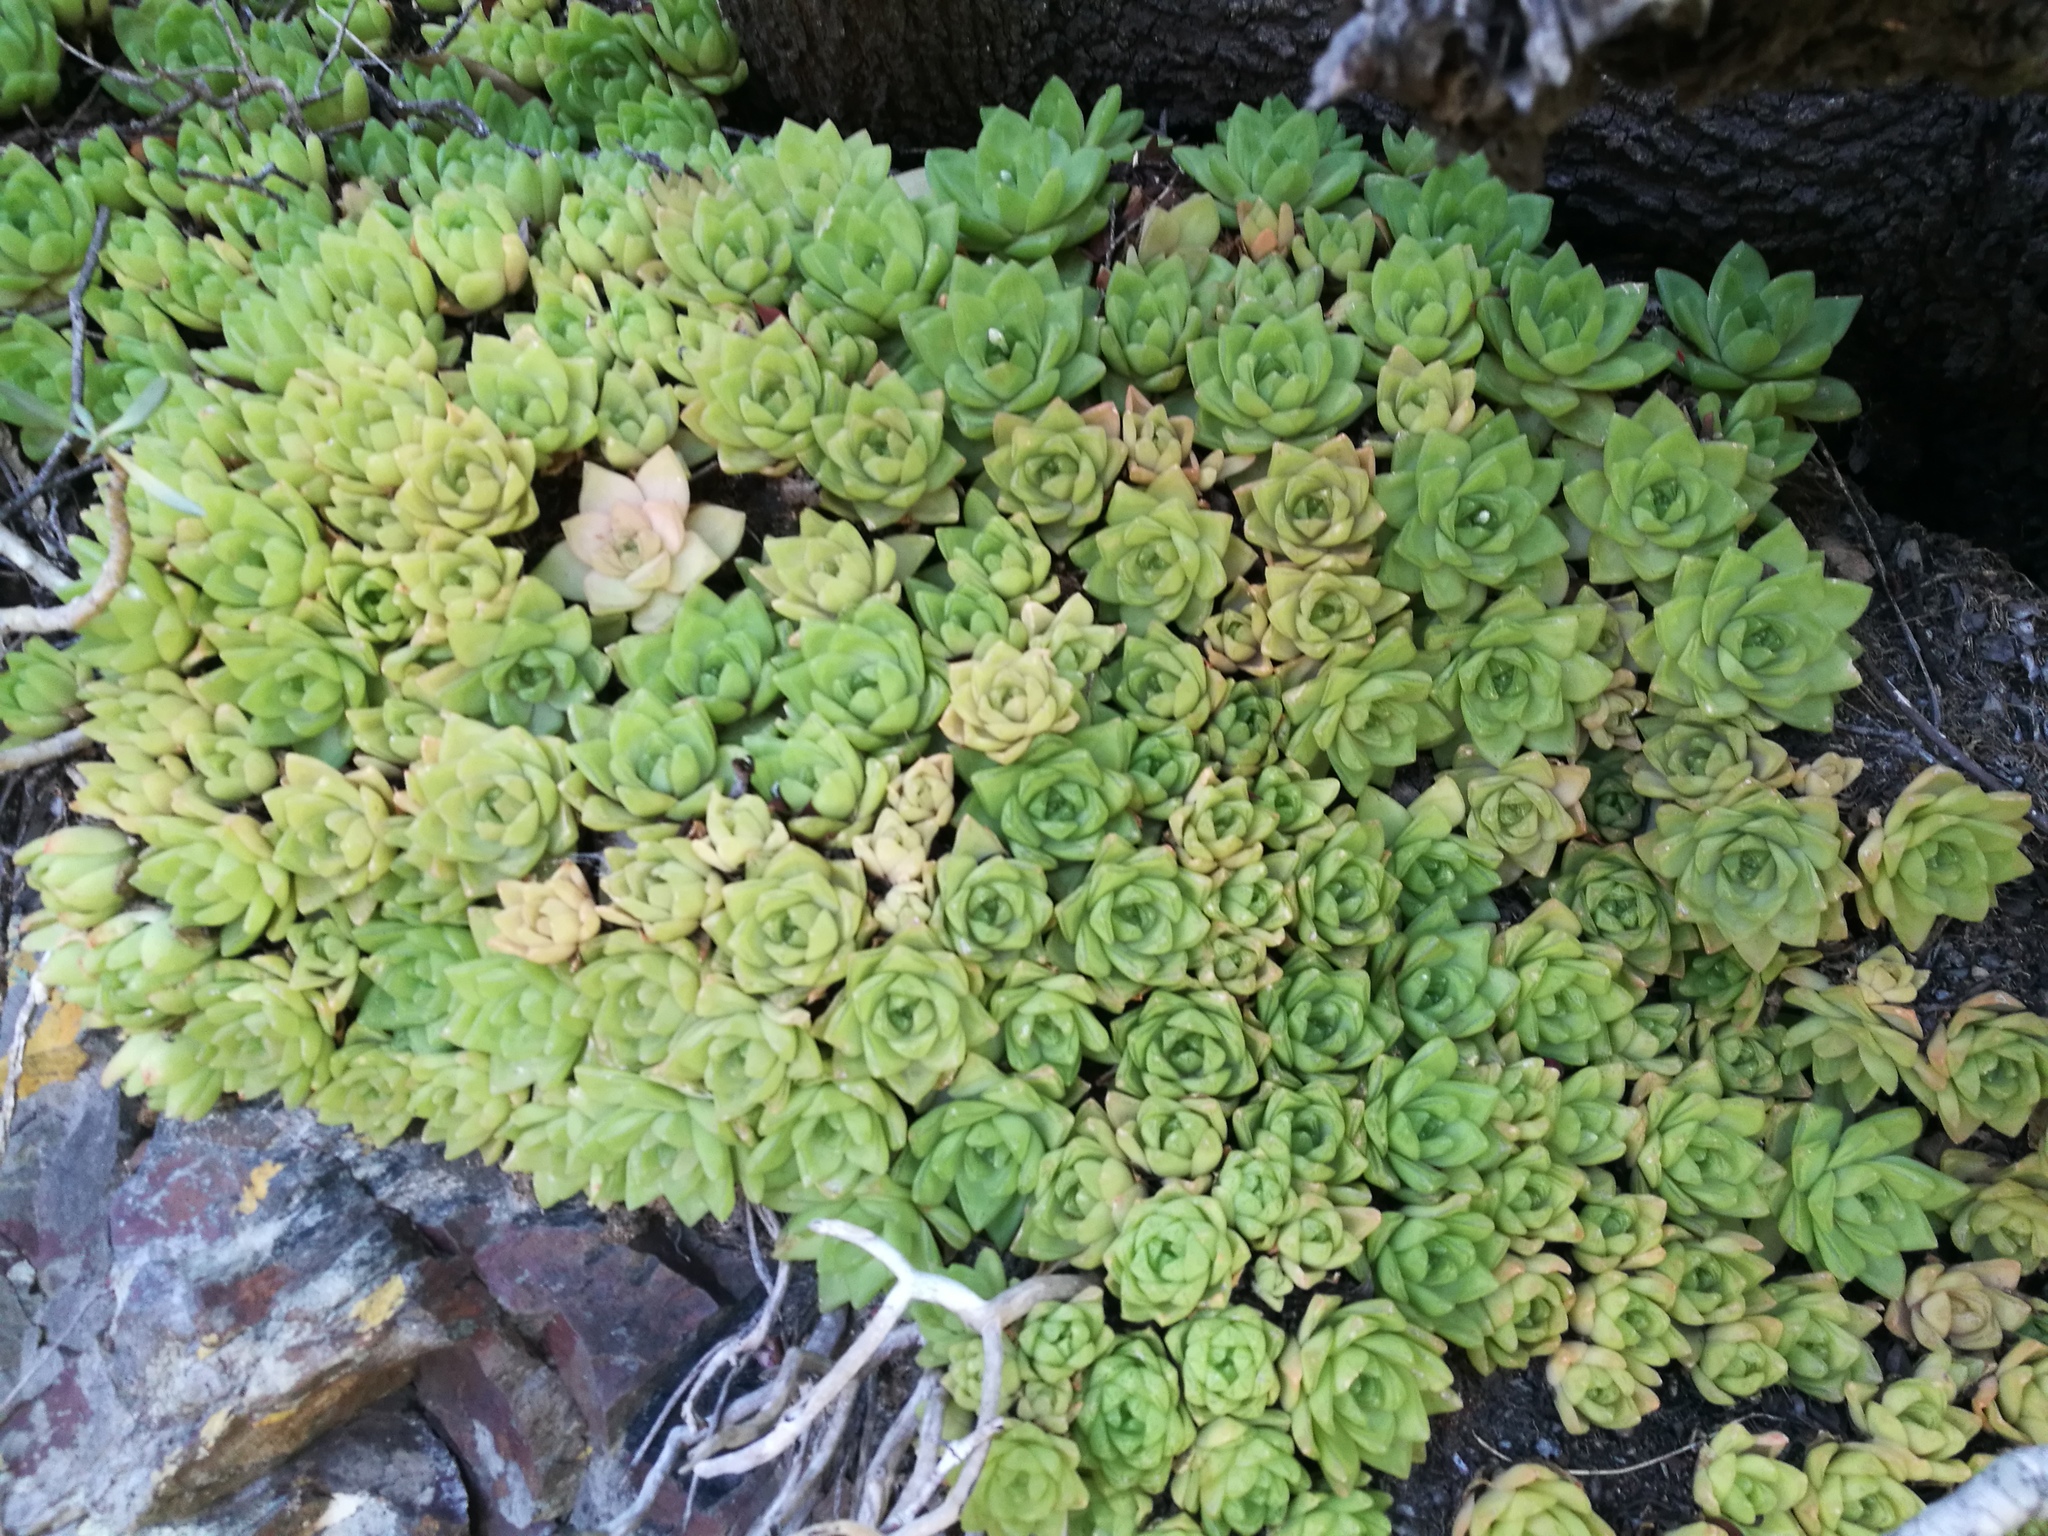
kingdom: Plantae
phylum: Tracheophyta
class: Liliopsida
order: Asparagales
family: Asphodelaceae
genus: Haworthia
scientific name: Haworthia cymbiformis
